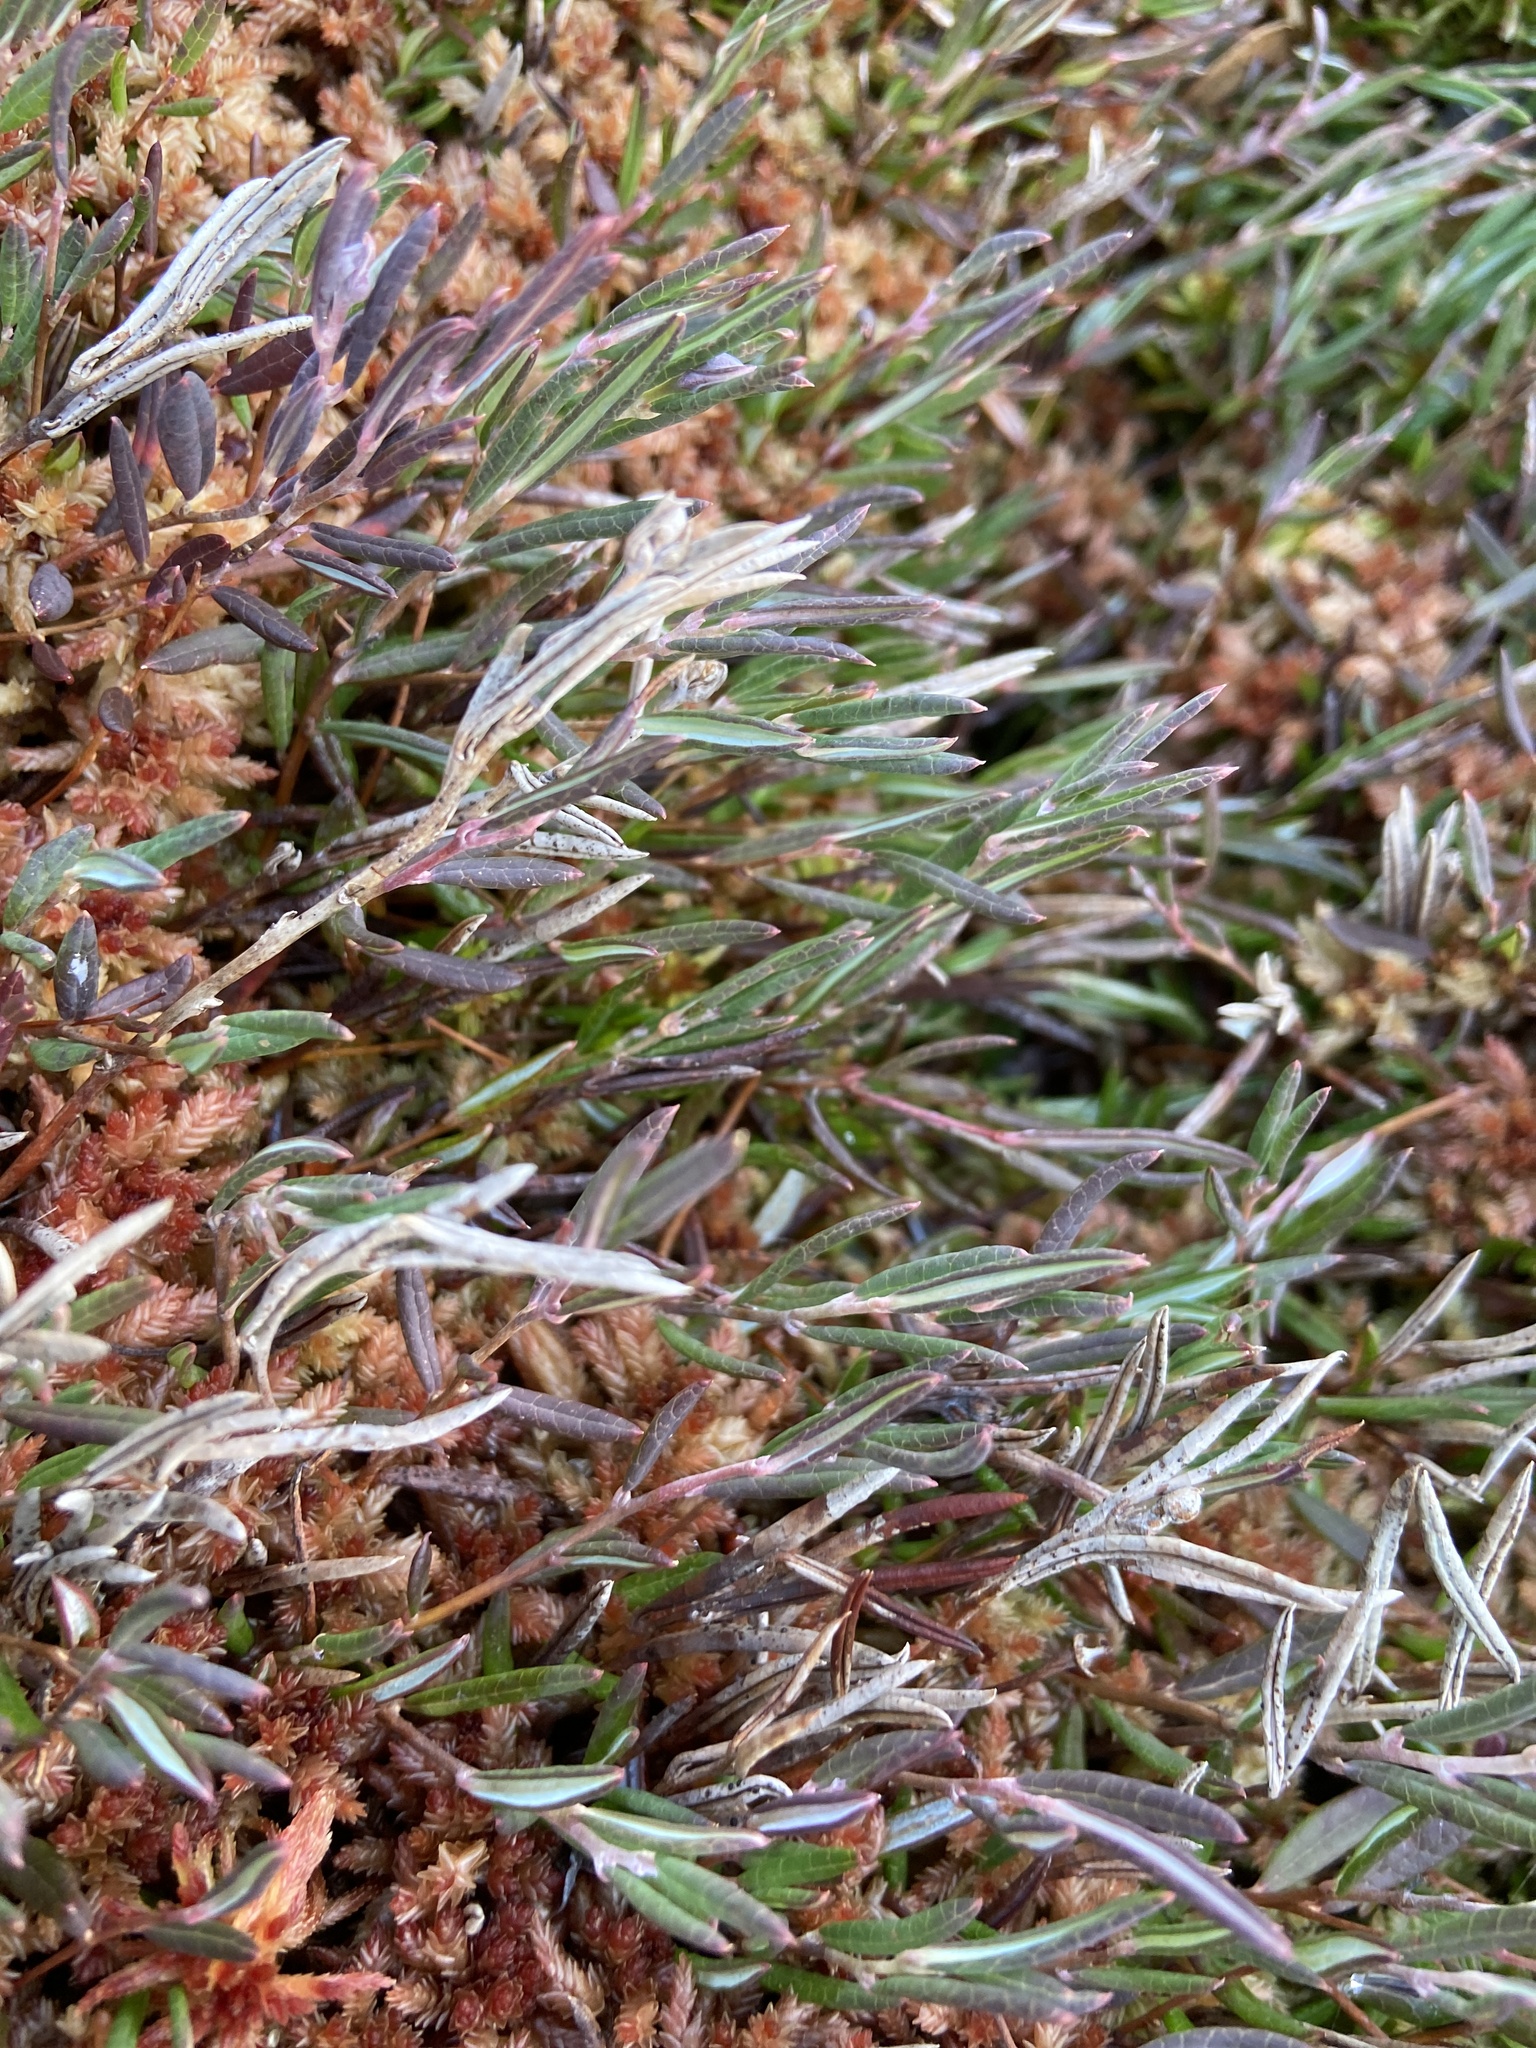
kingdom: Plantae
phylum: Tracheophyta
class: Magnoliopsida
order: Ericales
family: Ericaceae
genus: Andromeda
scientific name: Andromeda polifolia
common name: Bog-rosemary
